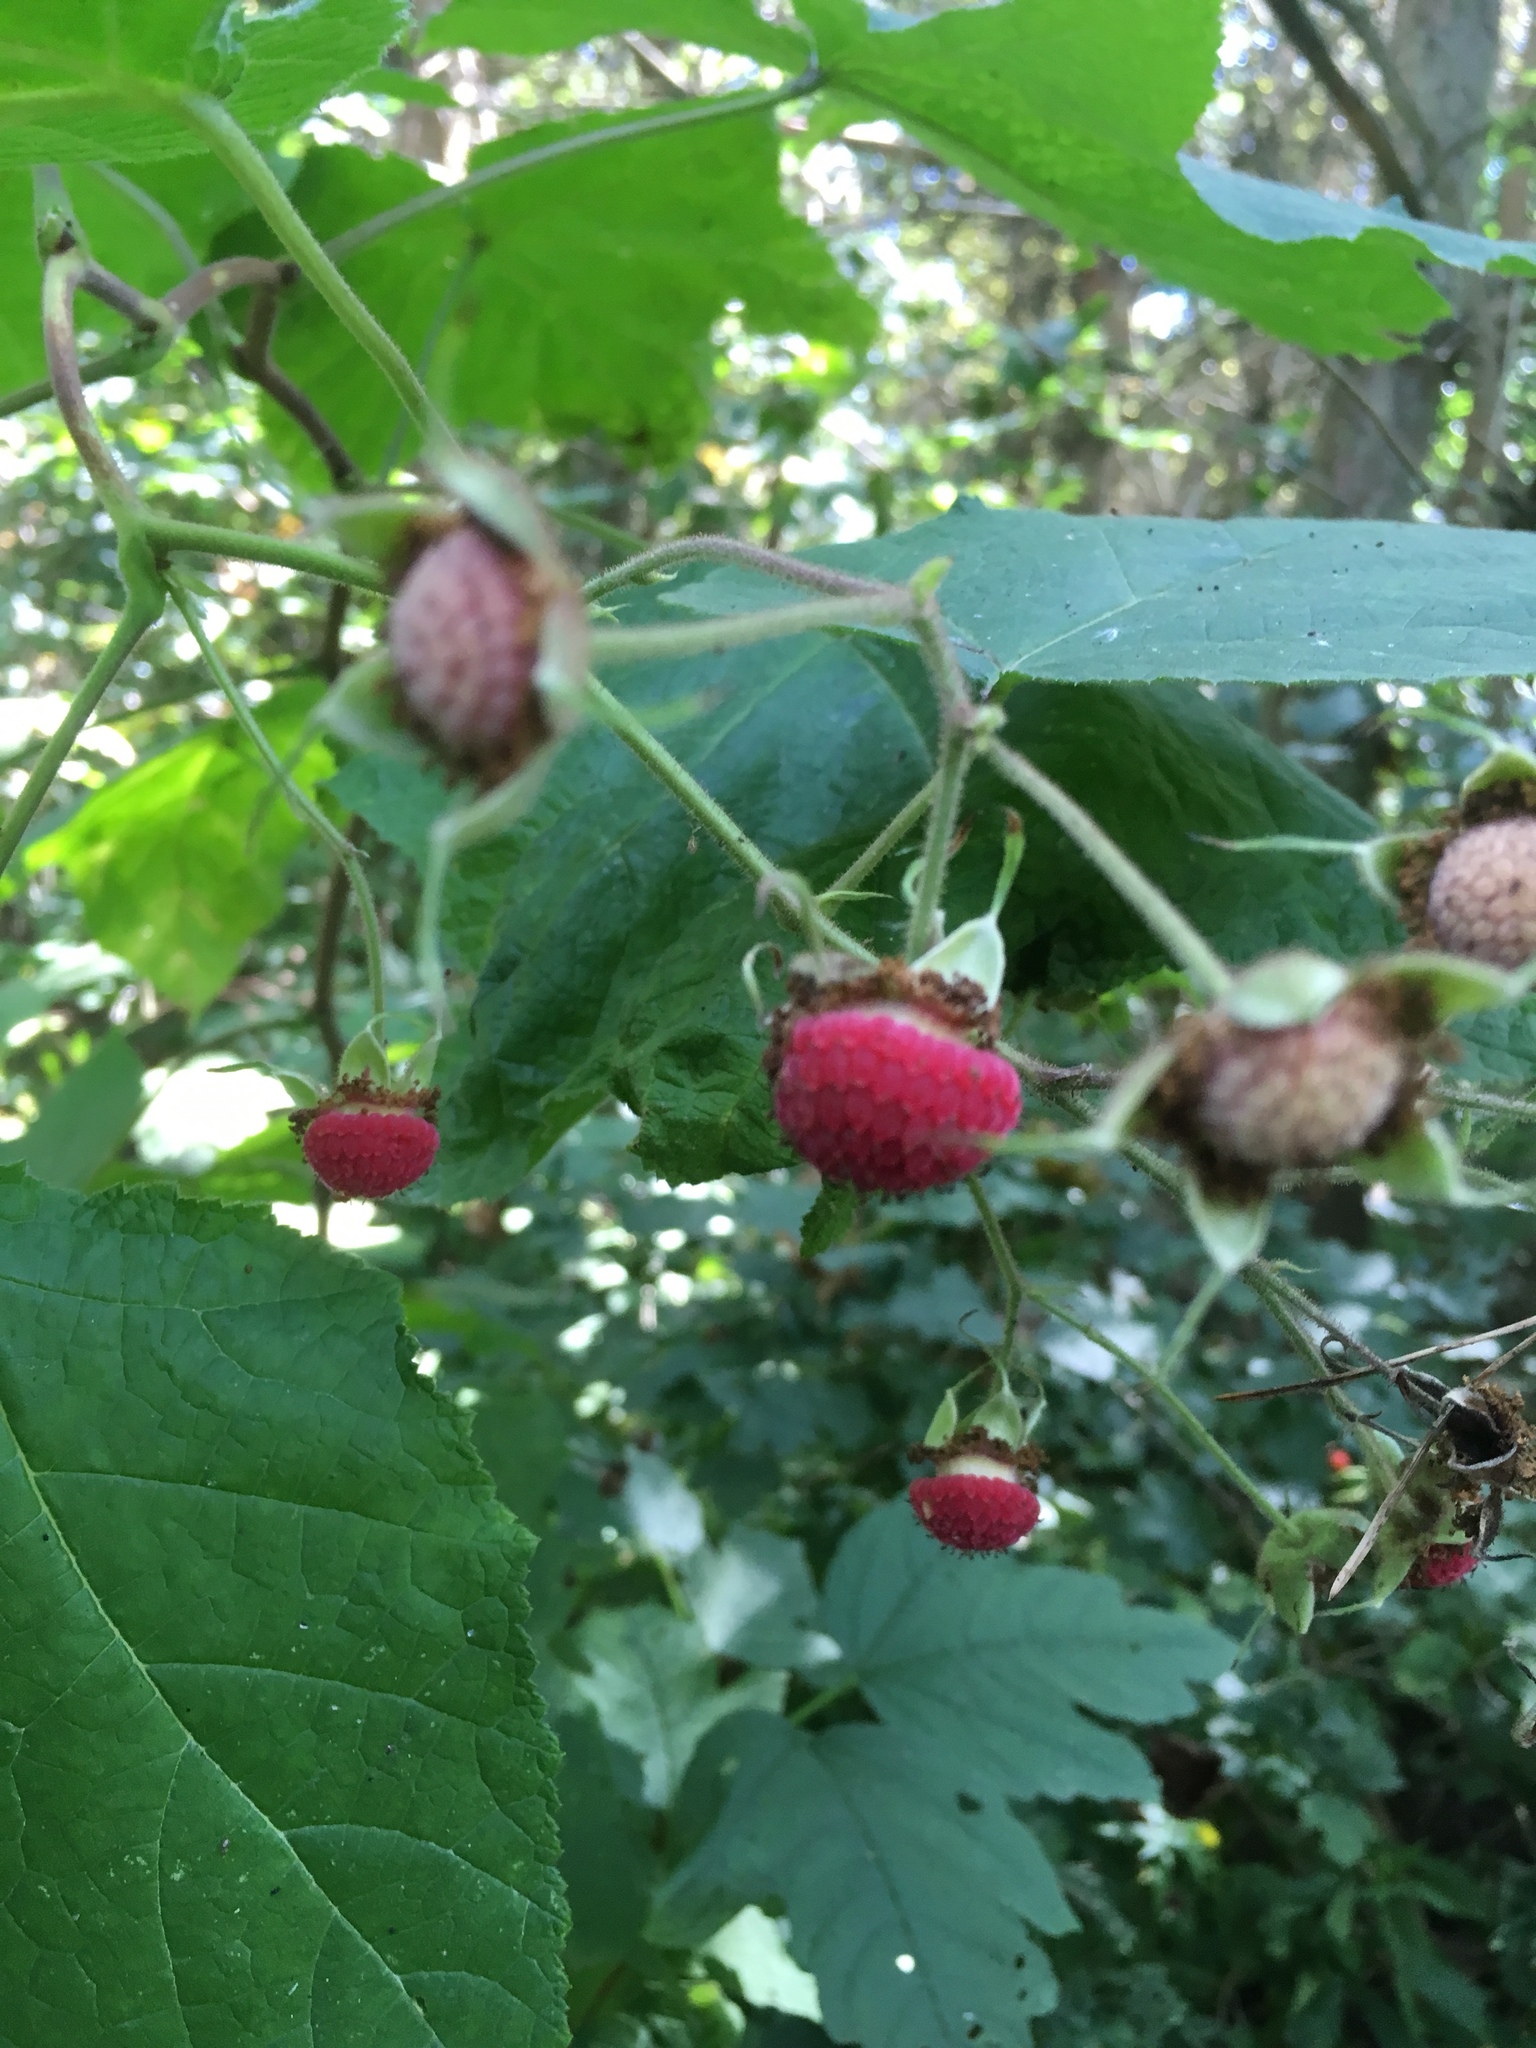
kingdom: Plantae
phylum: Tracheophyta
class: Magnoliopsida
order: Rosales
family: Rosaceae
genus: Rubus
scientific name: Rubus odoratus
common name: Purple-flowered raspberry
